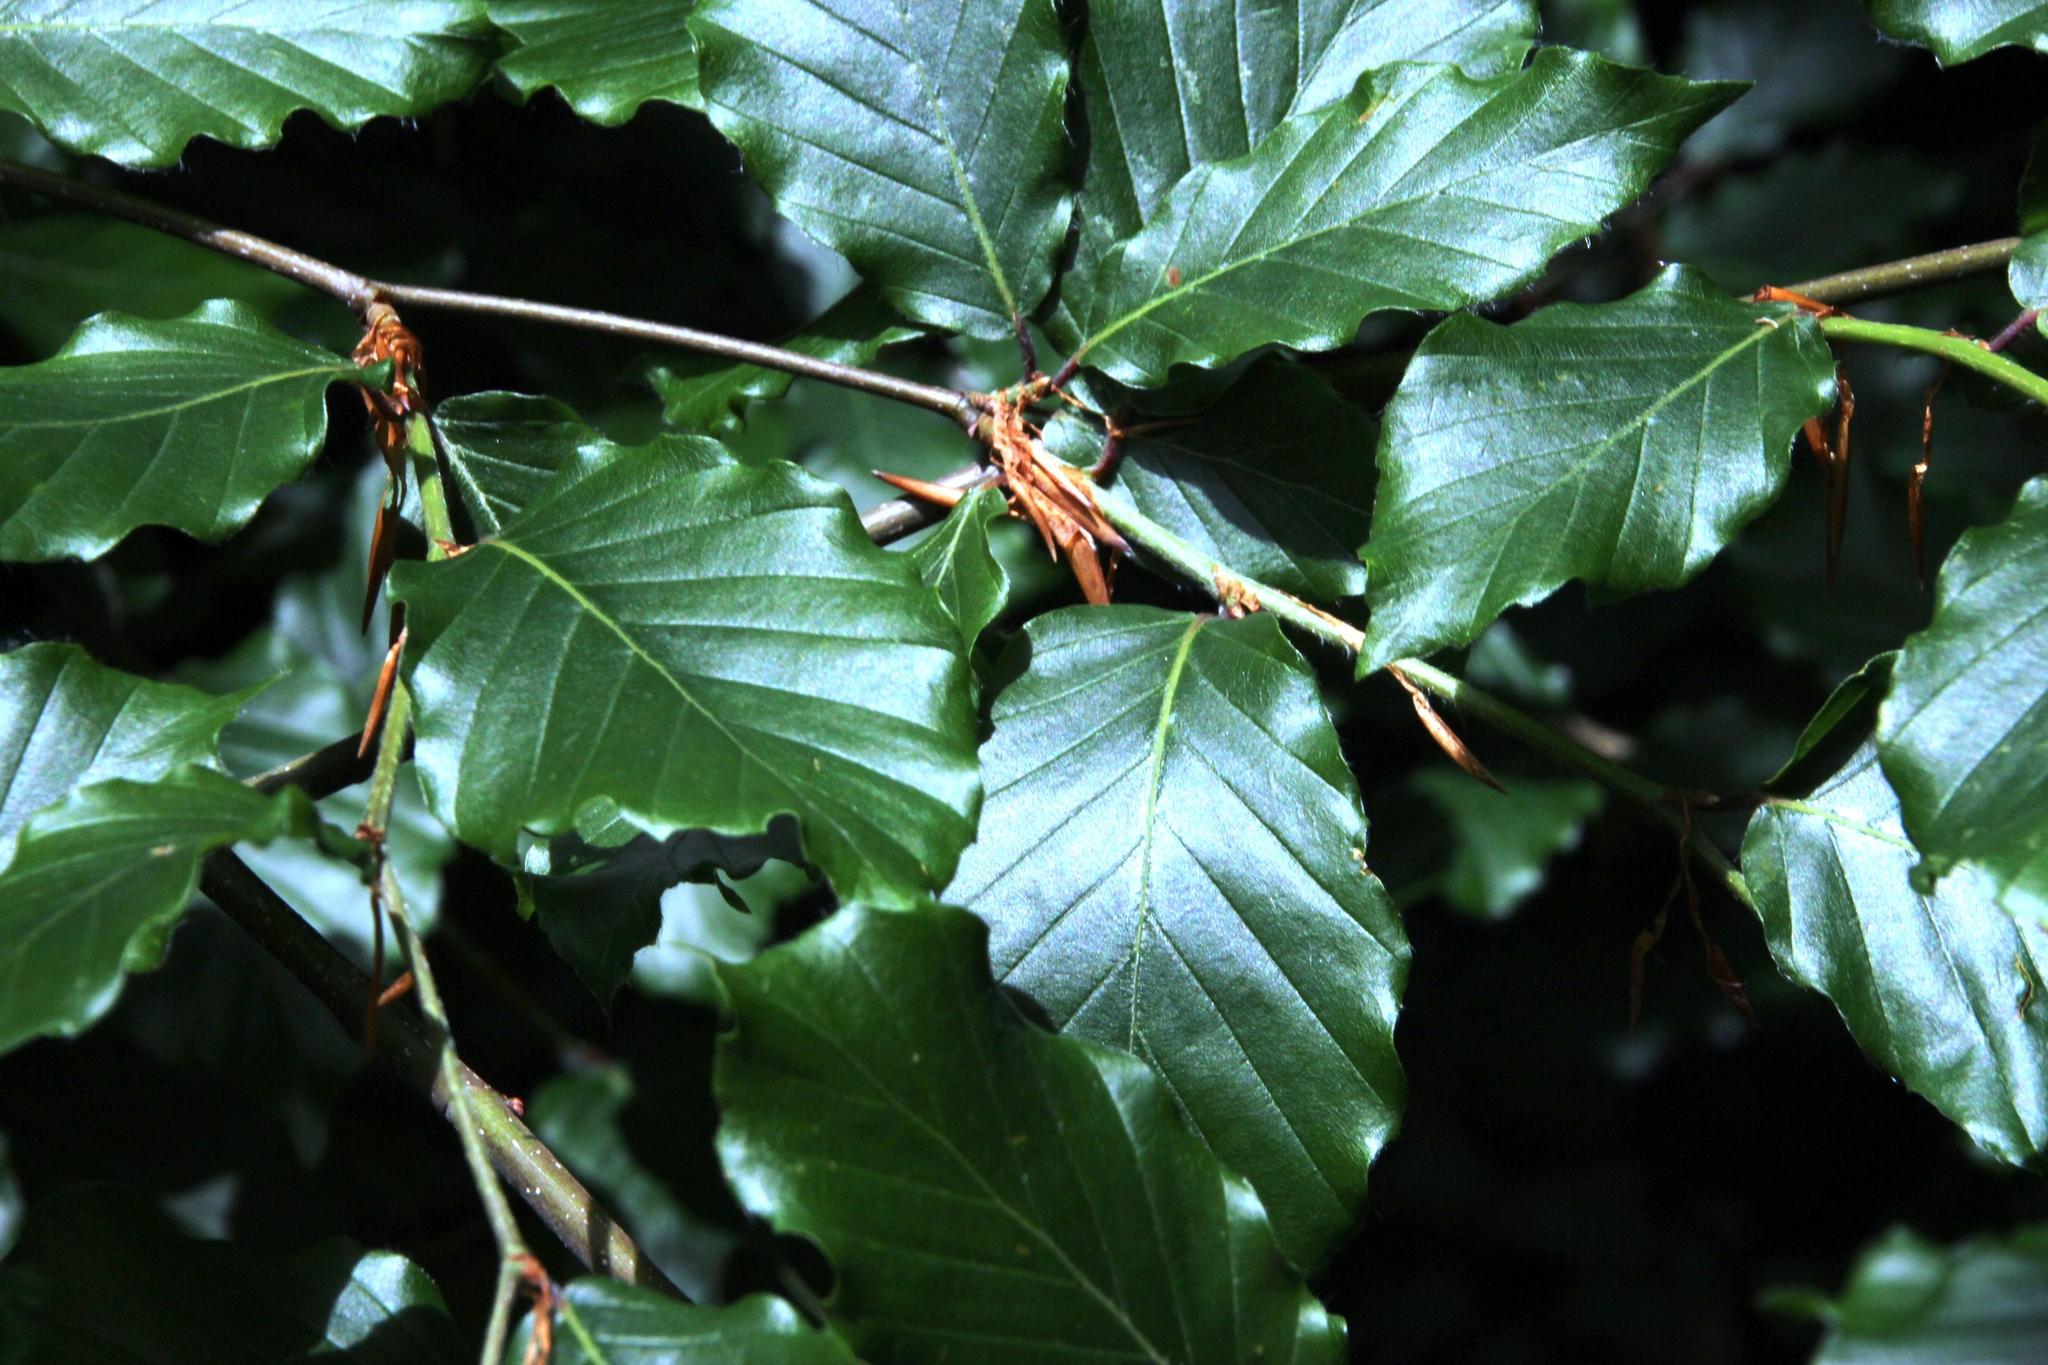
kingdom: Plantae
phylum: Tracheophyta
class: Magnoliopsida
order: Fagales
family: Fagaceae
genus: Fagus
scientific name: Fagus sylvatica
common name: Beech
